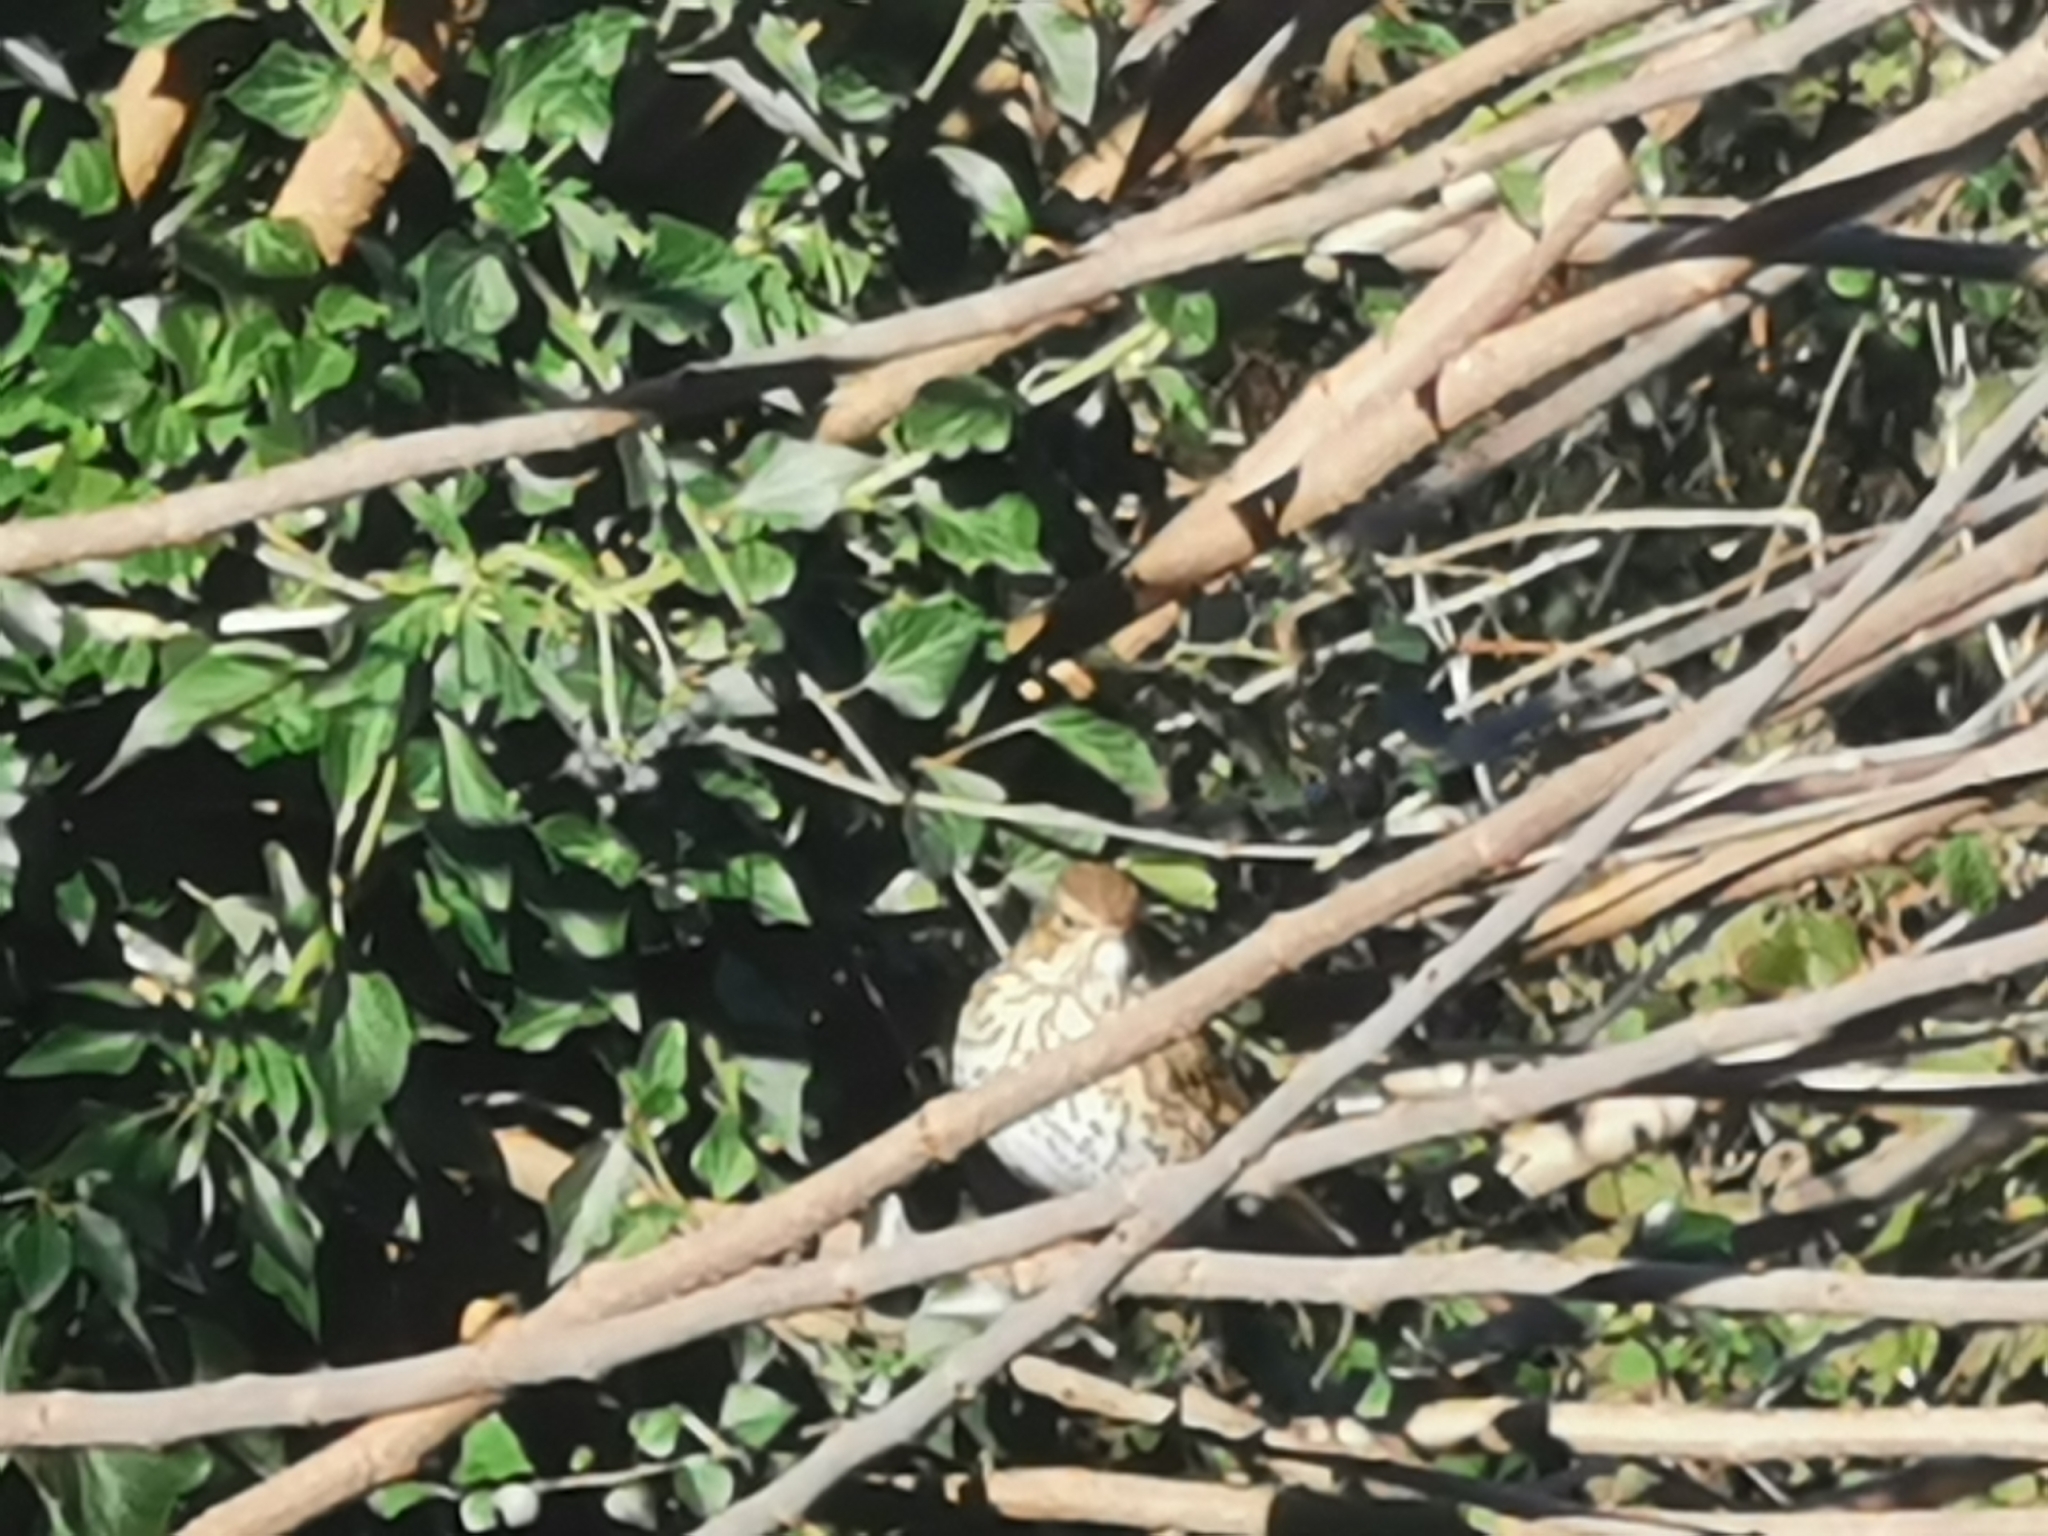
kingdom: Animalia
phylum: Chordata
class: Aves
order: Passeriformes
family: Turdidae
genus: Turdus
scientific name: Turdus philomelos
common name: Song thrush
